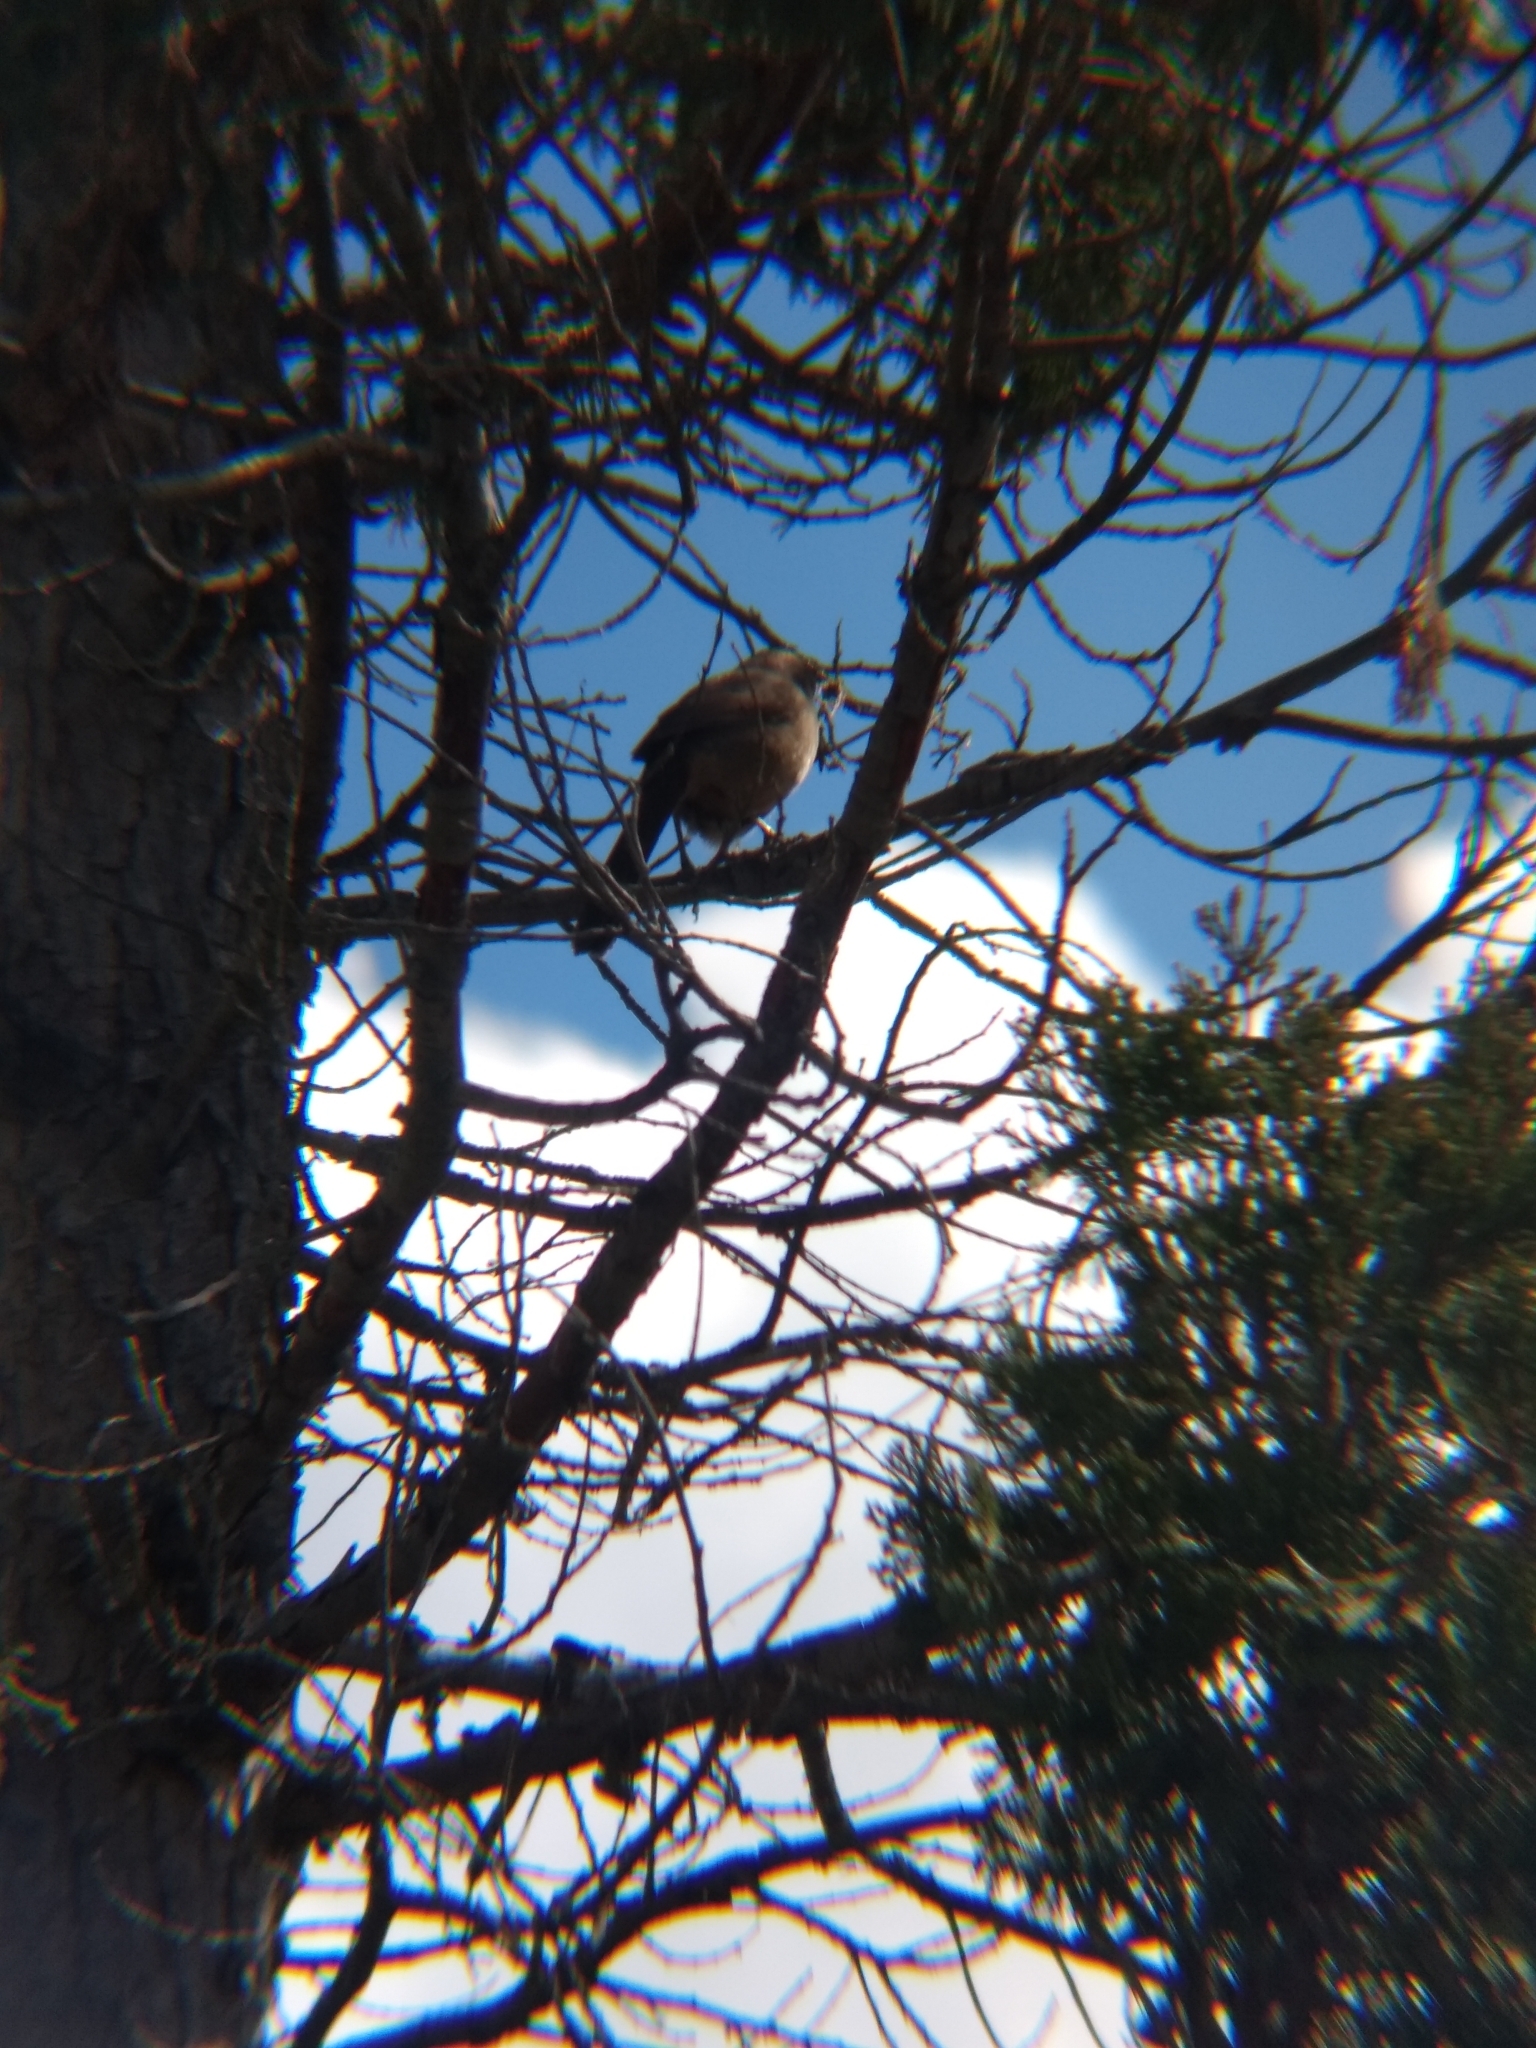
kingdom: Animalia
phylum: Chordata
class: Aves
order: Passeriformes
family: Mimidae
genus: Toxostoma
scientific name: Toxostoma redivivum
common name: California thrasher
